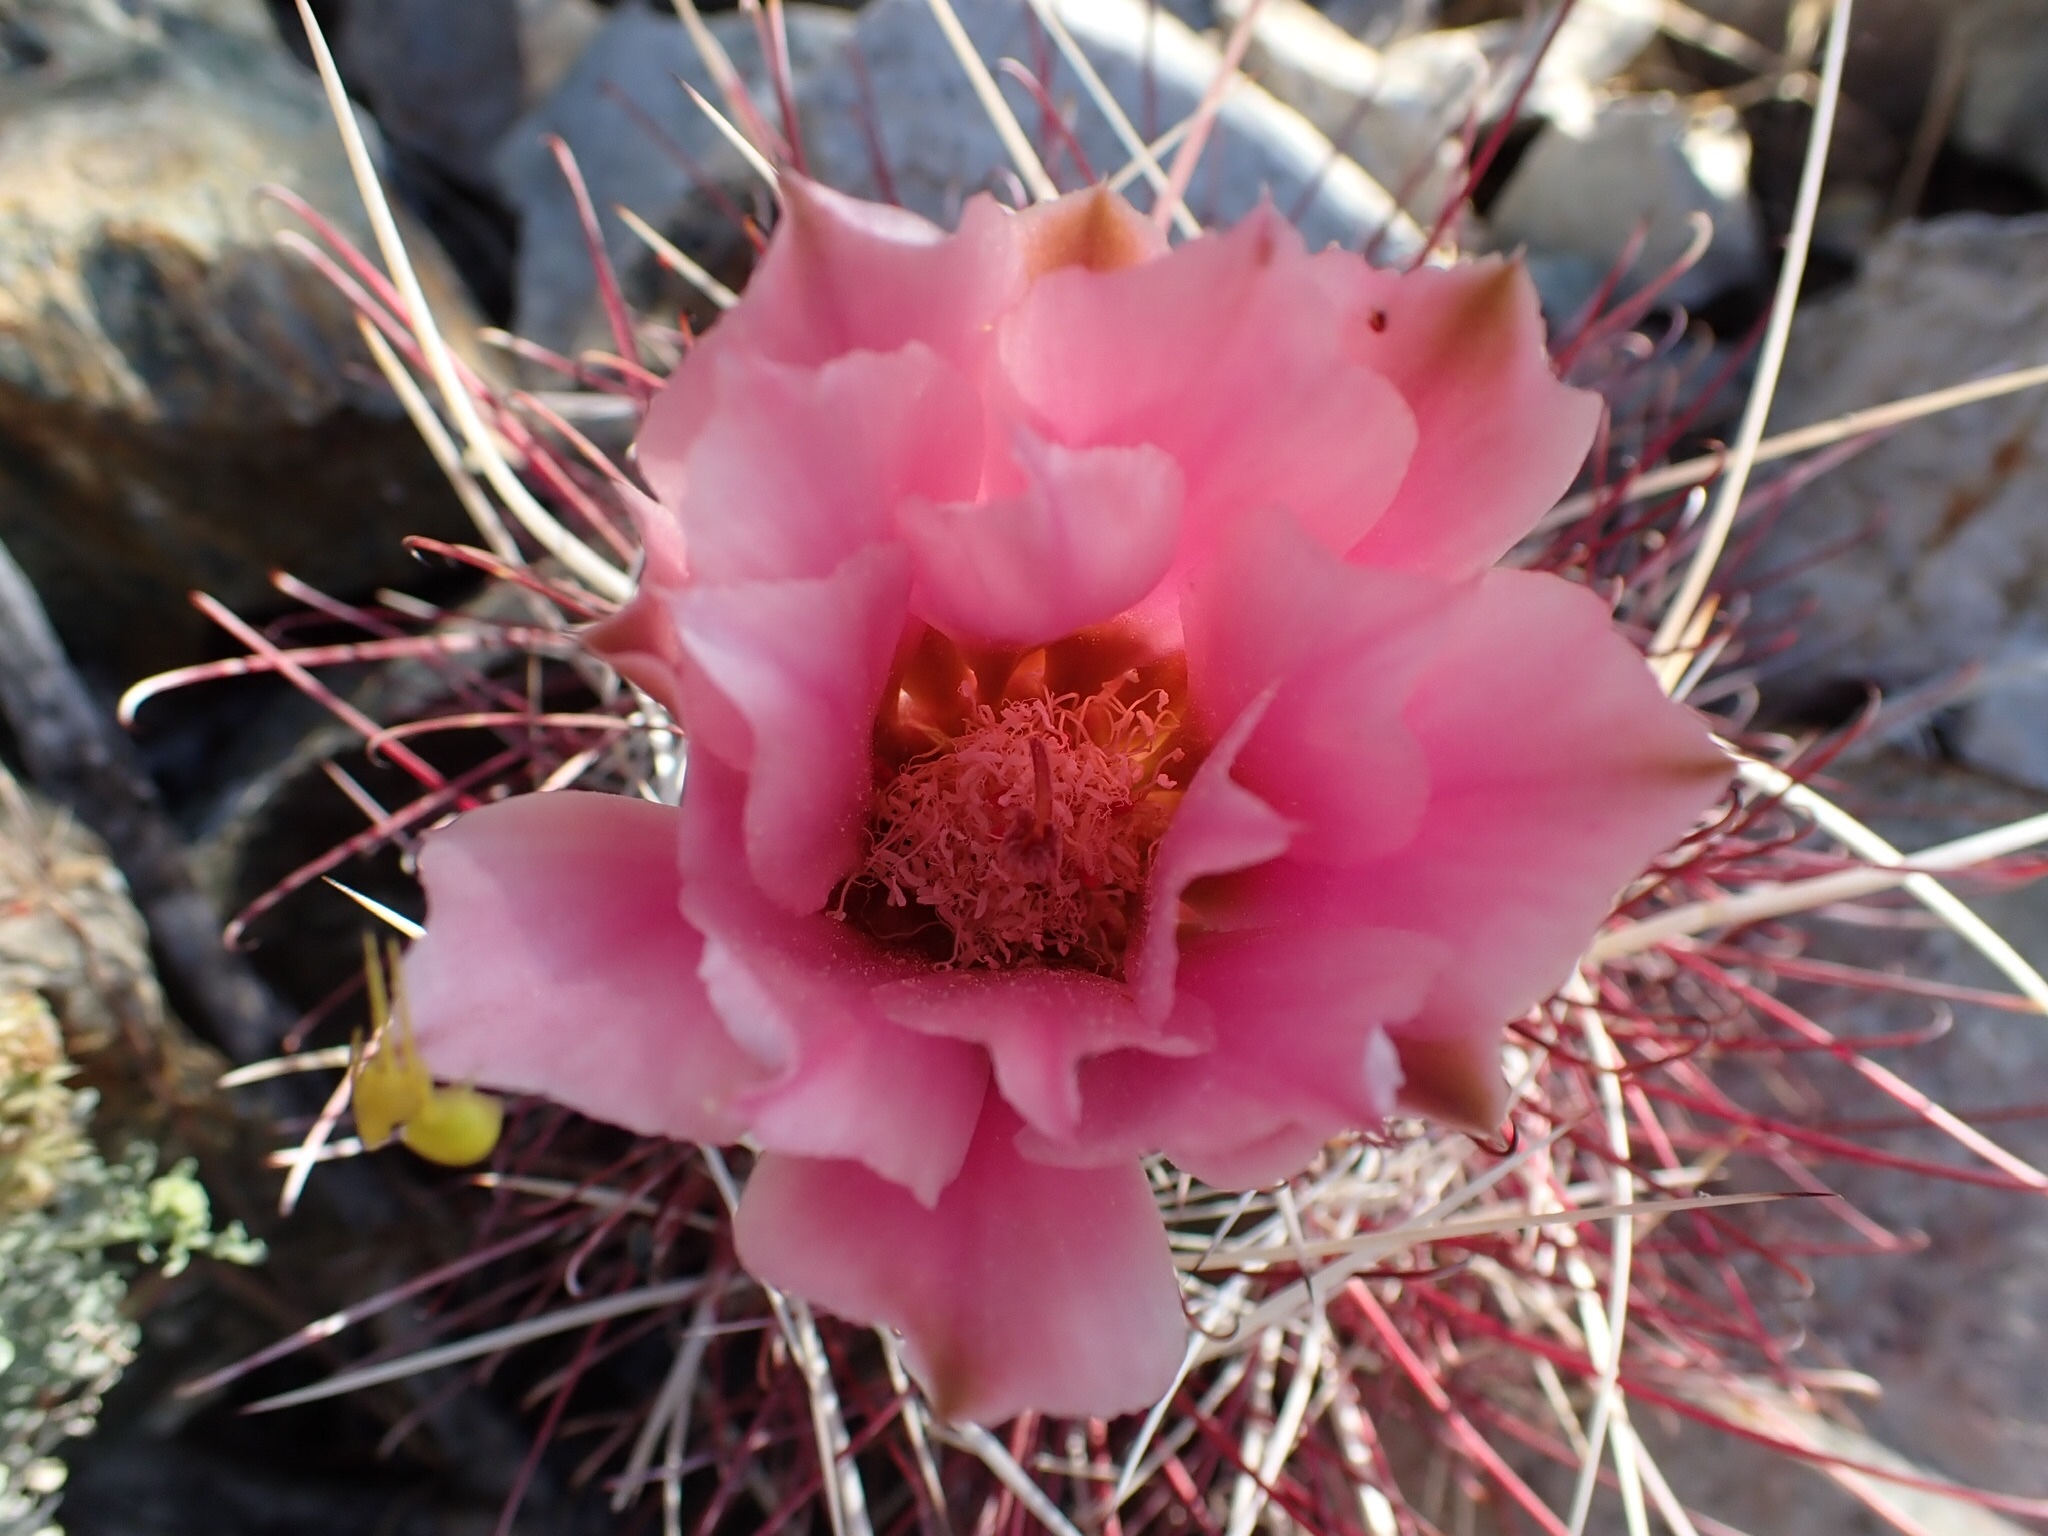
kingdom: Plantae
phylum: Tracheophyta
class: Magnoliopsida
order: Caryophyllales
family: Cactaceae
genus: Sclerocactus
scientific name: Sclerocactus polyancistrus
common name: Mohave fishhook cactus
